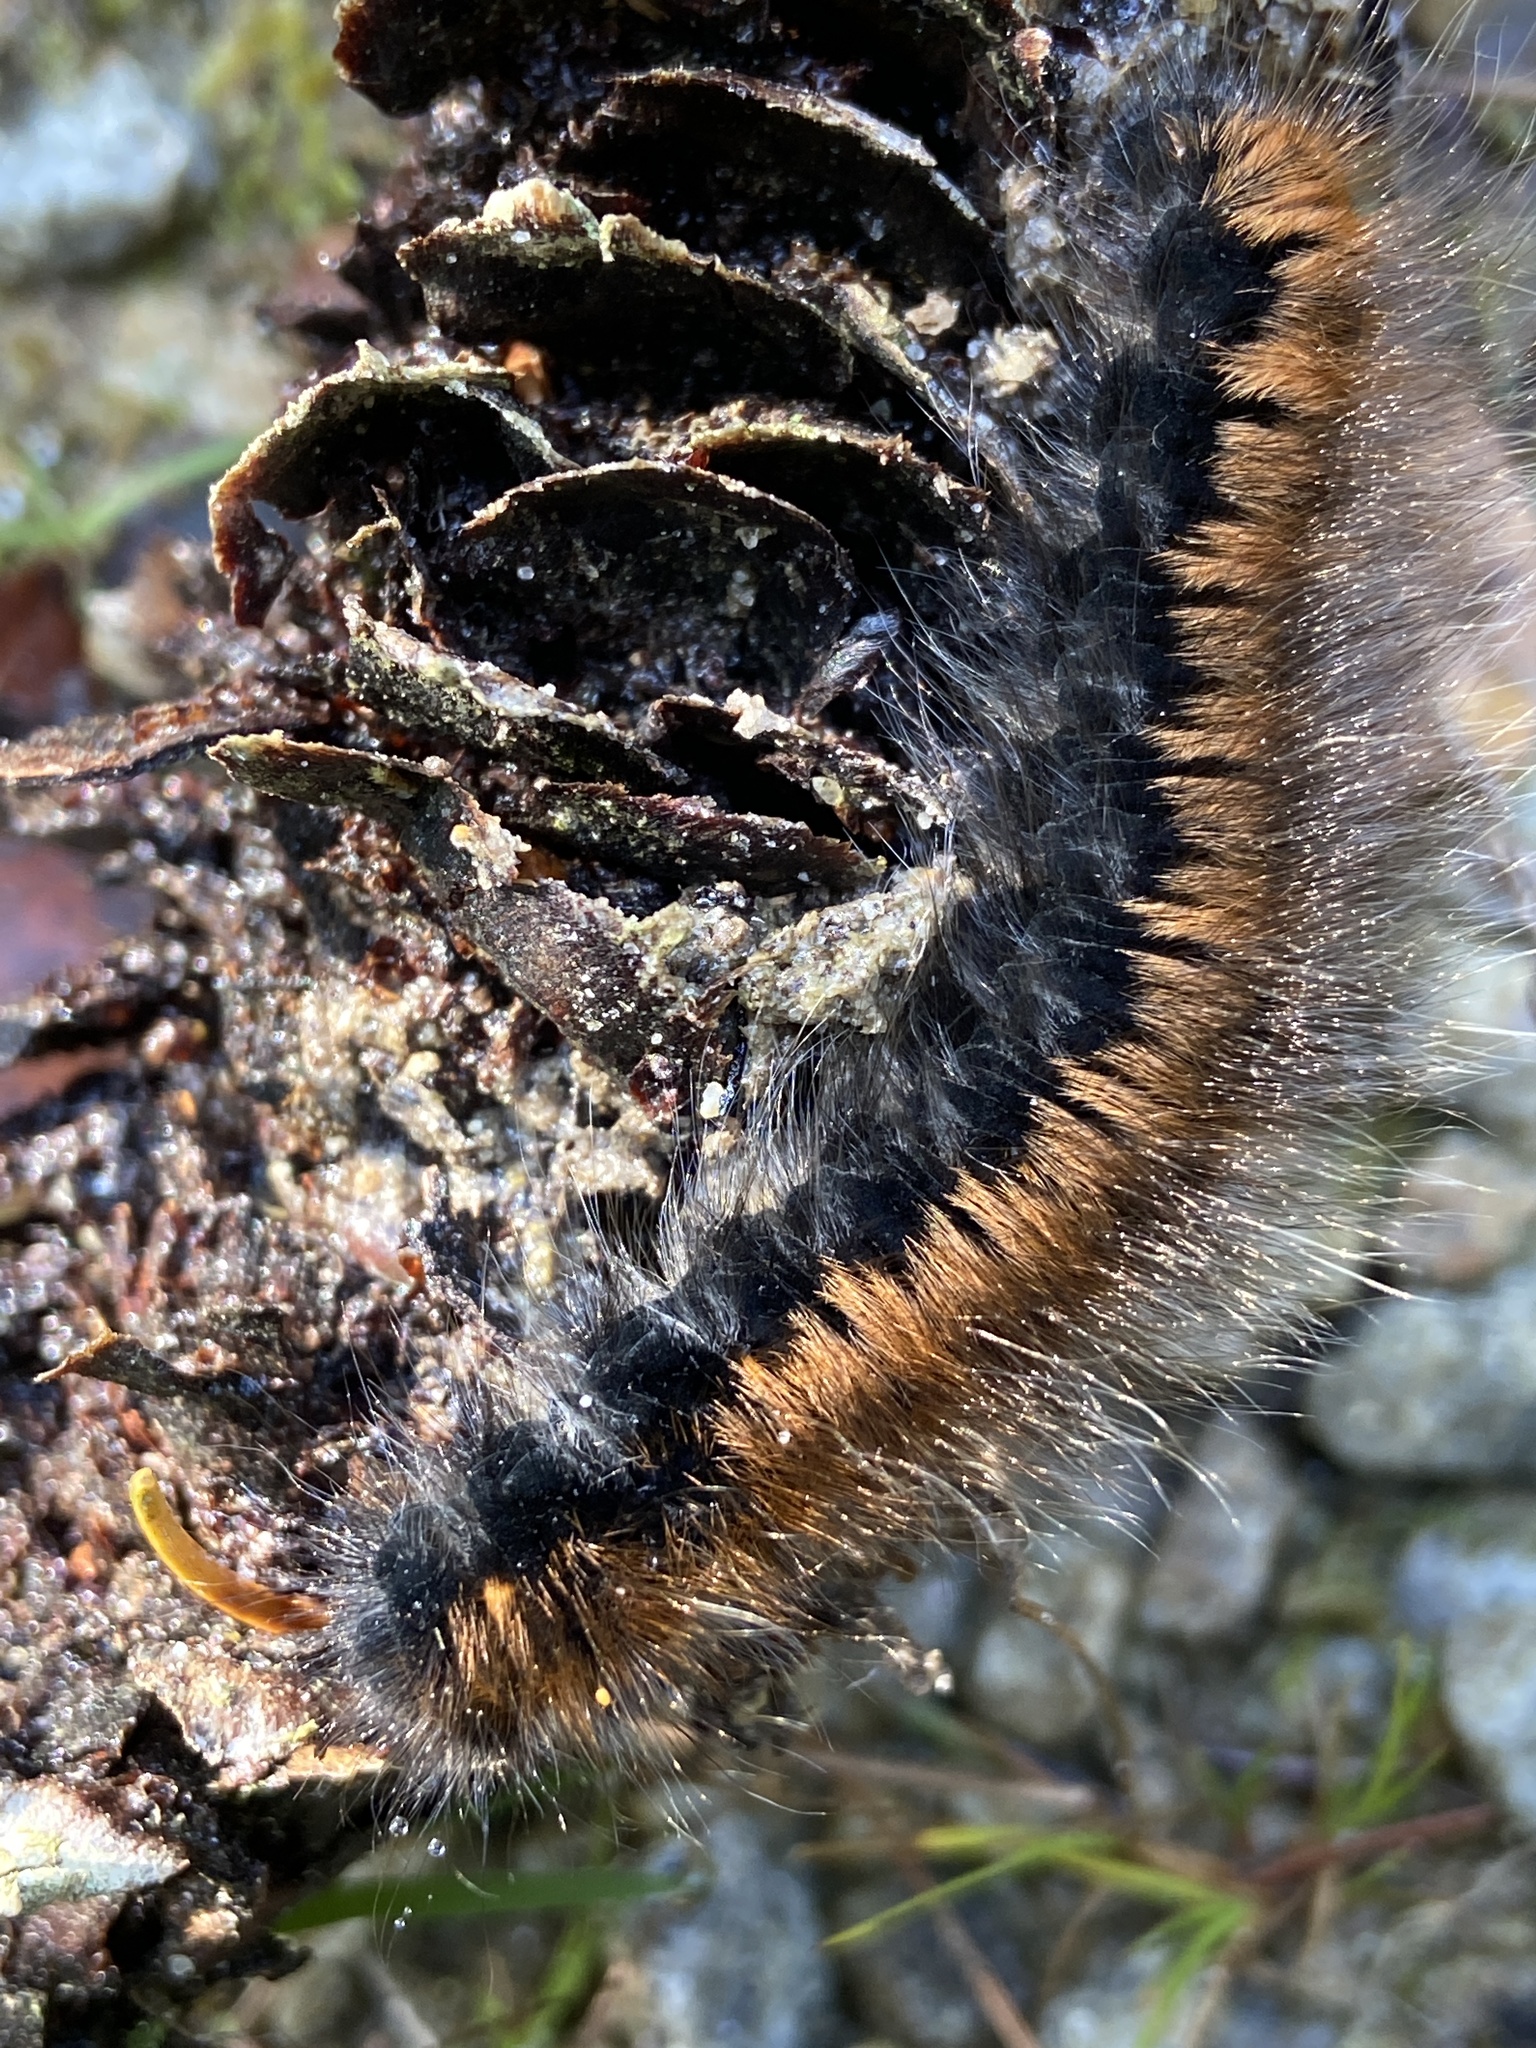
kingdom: Animalia
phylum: Arthropoda
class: Insecta
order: Lepidoptera
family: Lasiocampidae
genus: Macrothylacia
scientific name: Macrothylacia rubi
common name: Fox moth
